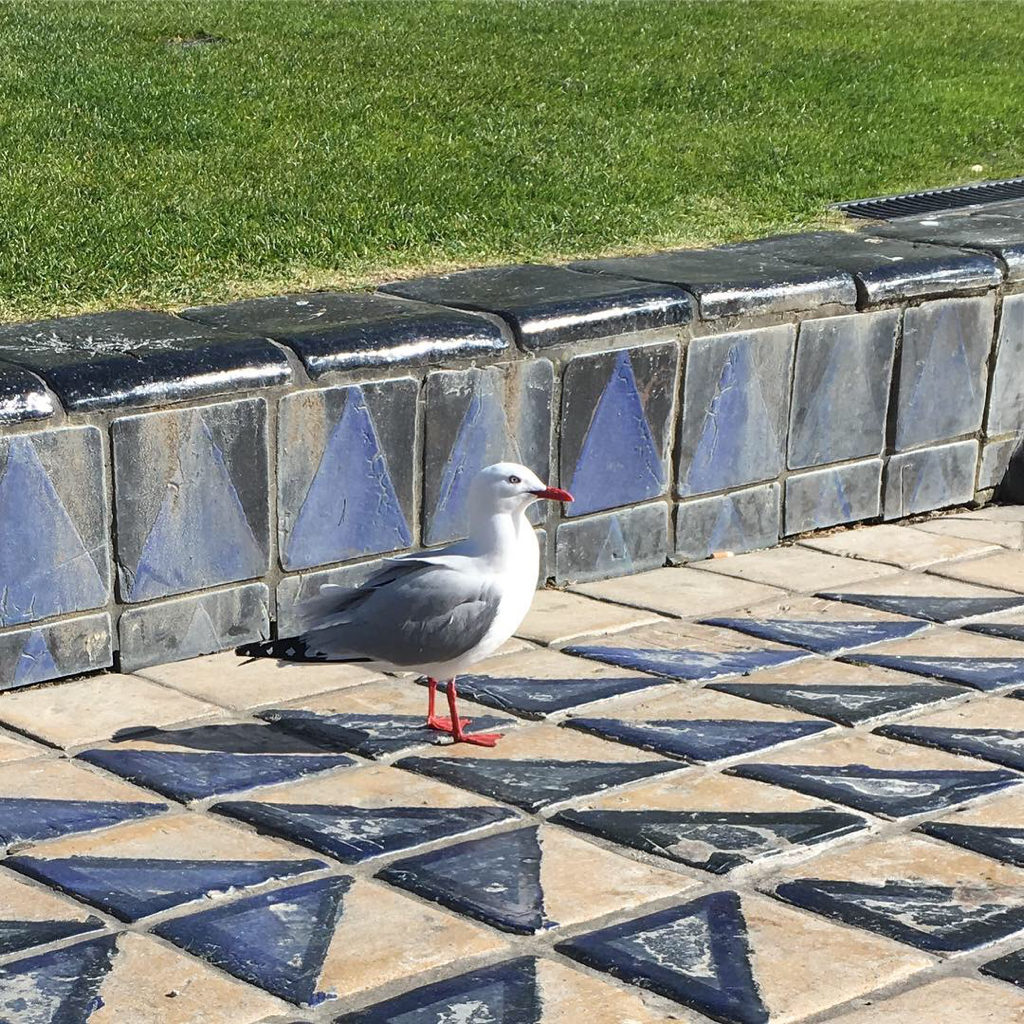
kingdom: Animalia
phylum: Chordata
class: Aves
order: Charadriiformes
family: Laridae
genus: Chroicocephalus
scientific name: Chroicocephalus novaehollandiae
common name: Silver gull
